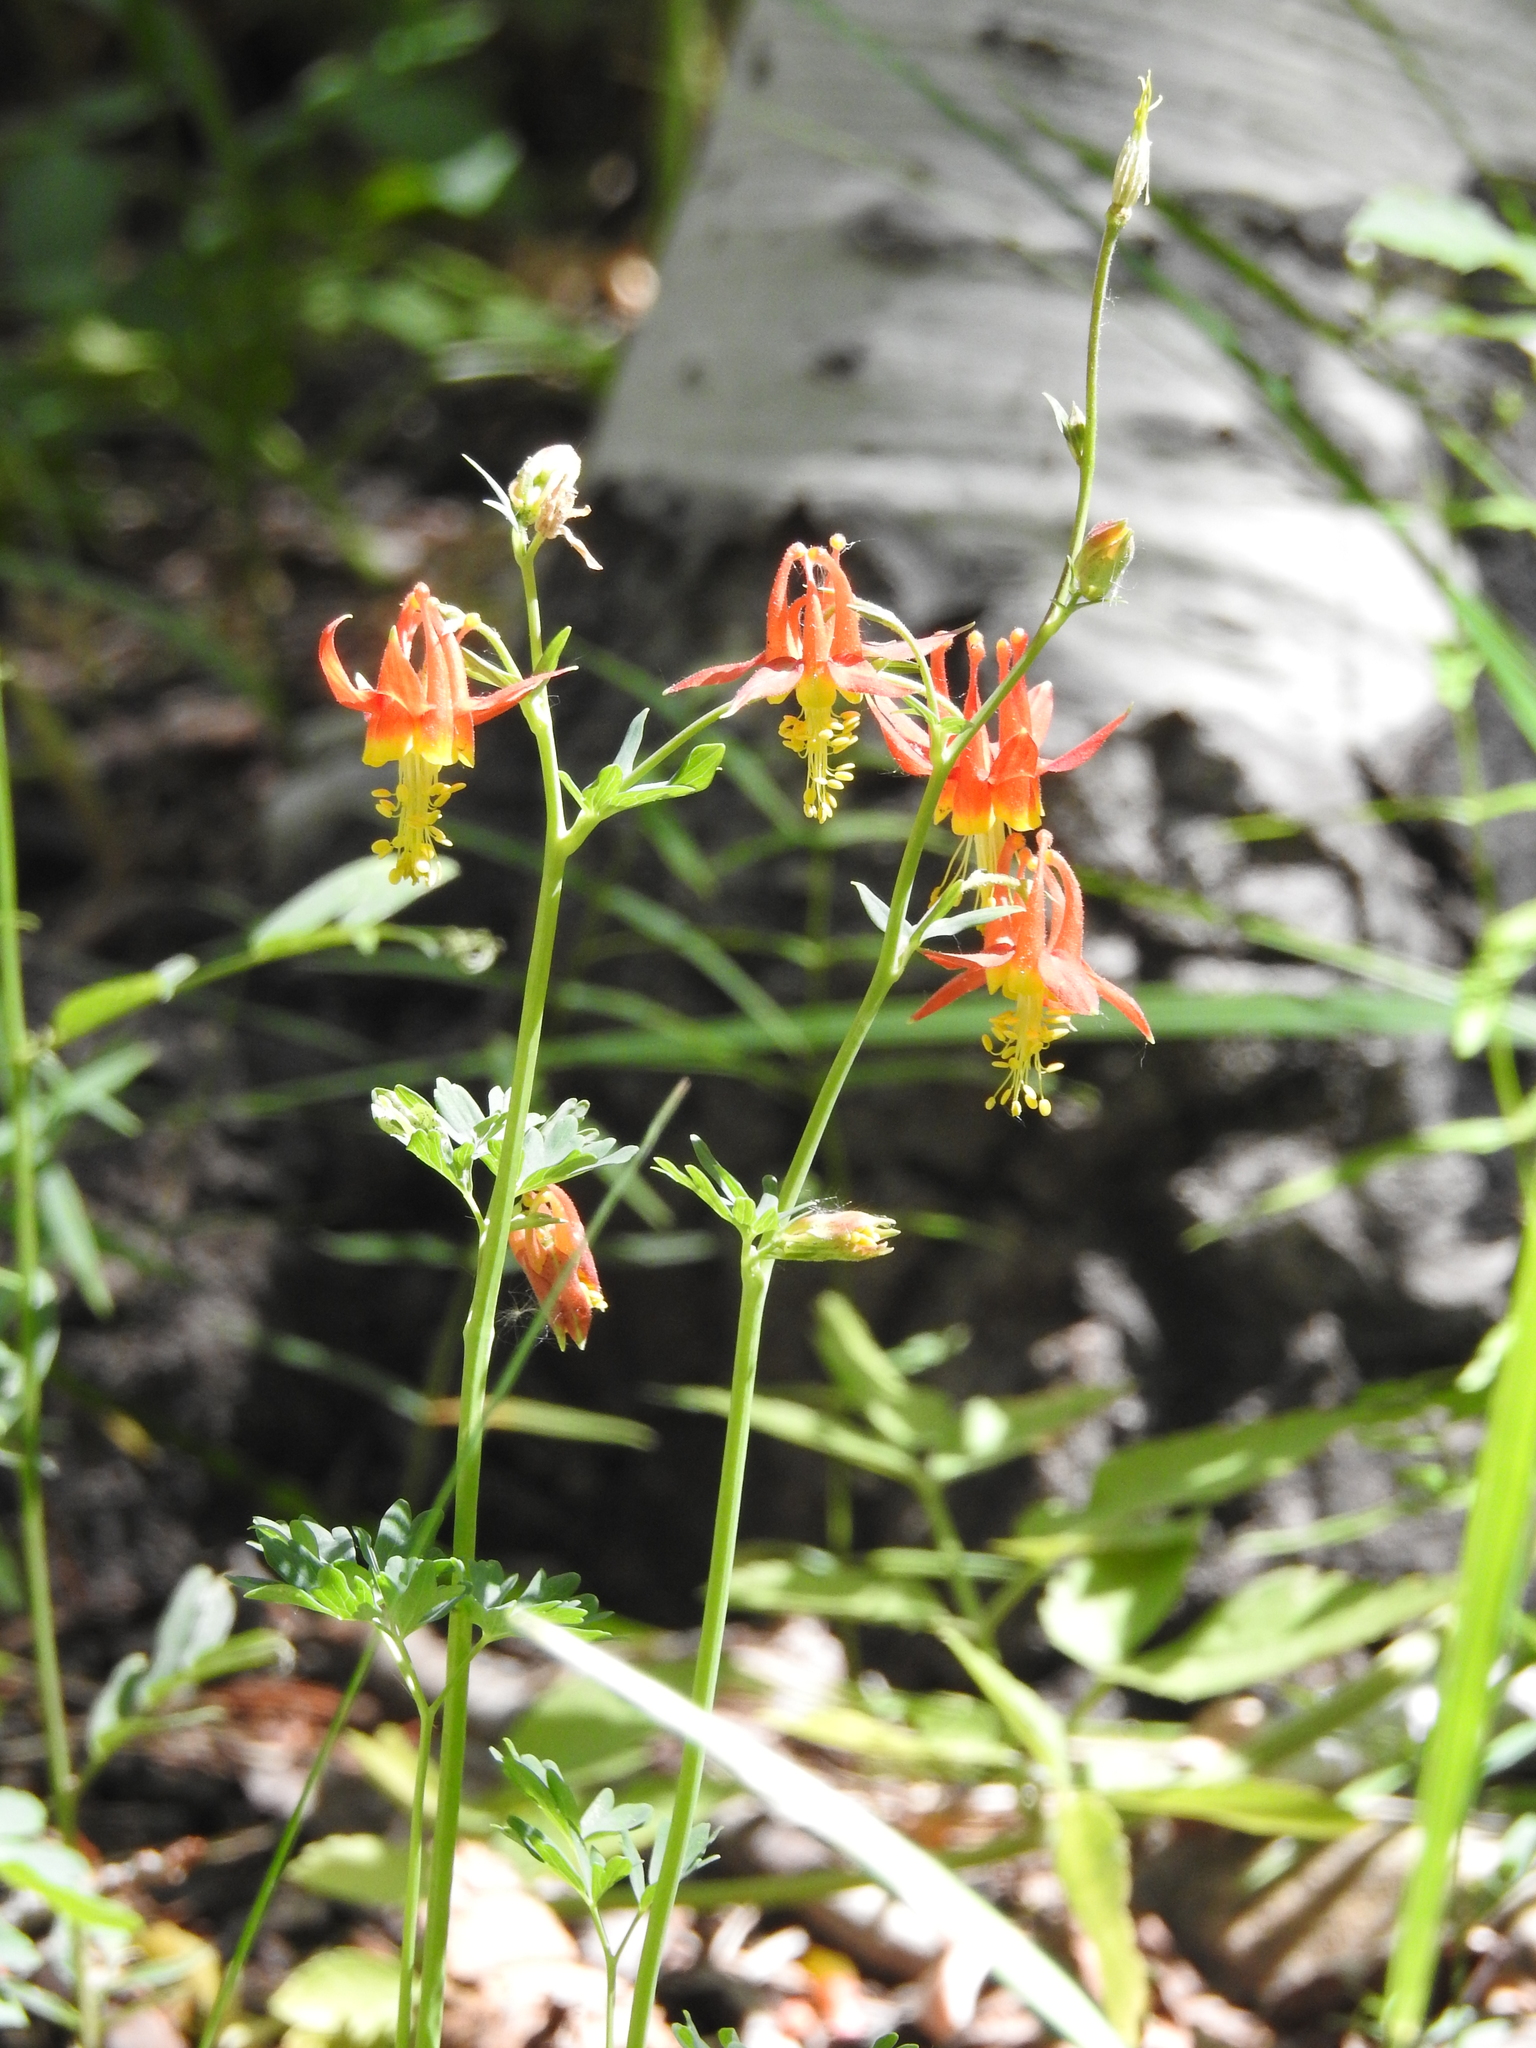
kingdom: Plantae
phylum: Tracheophyta
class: Magnoliopsida
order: Ranunculales
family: Ranunculaceae
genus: Aquilegia
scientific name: Aquilegia formosa
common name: Sitka columbine
